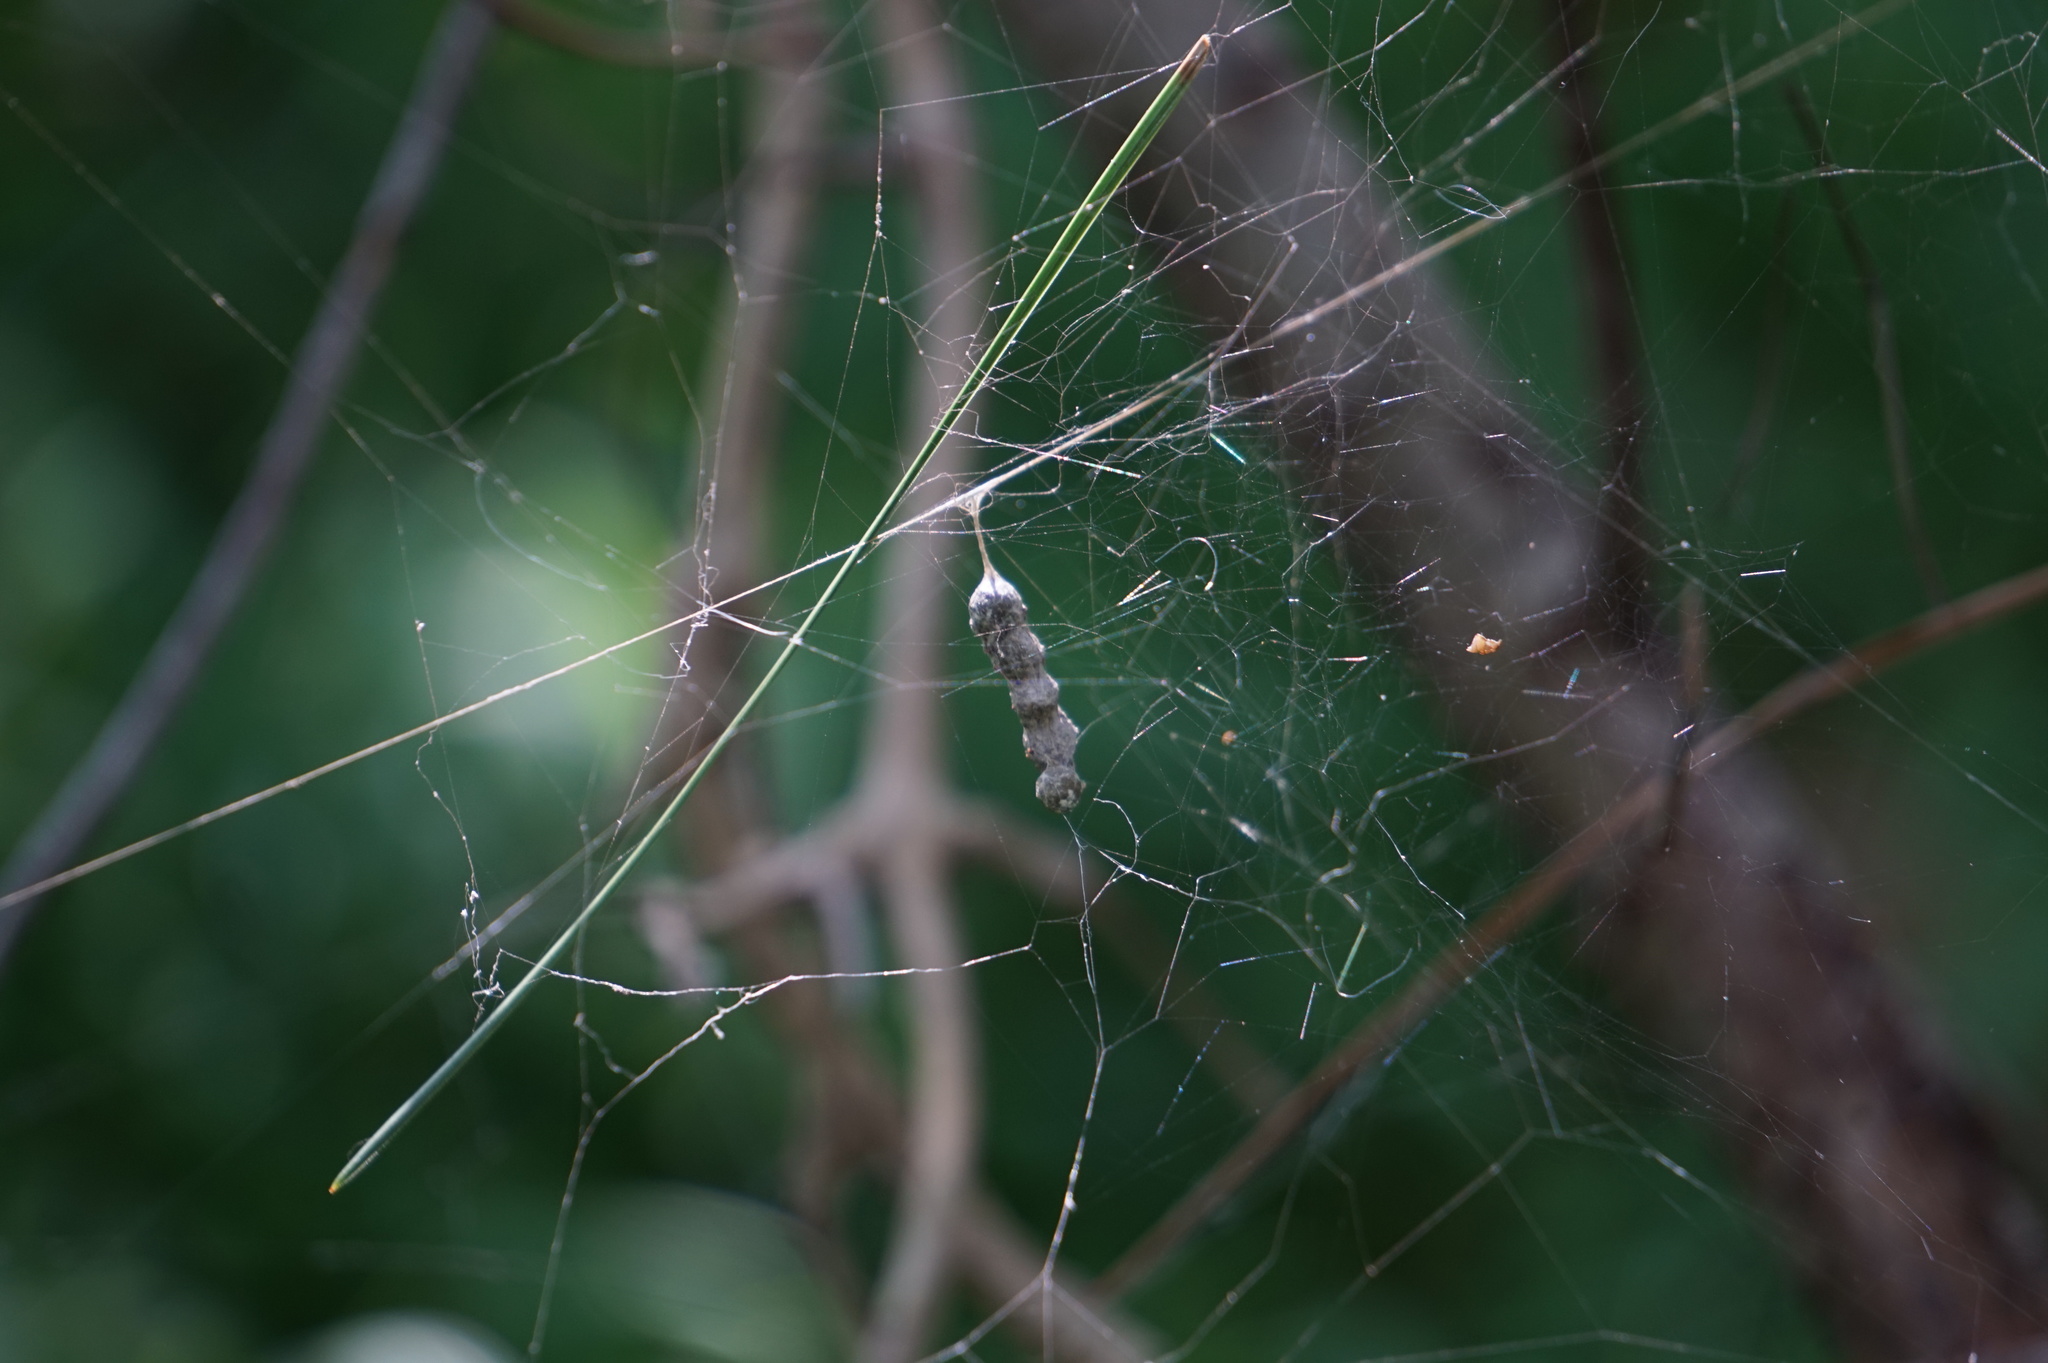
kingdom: Animalia
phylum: Arthropoda
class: Arachnida
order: Araneae
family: Araneidae
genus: Mecynogea
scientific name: Mecynogea lemniscata
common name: Orb weavers
